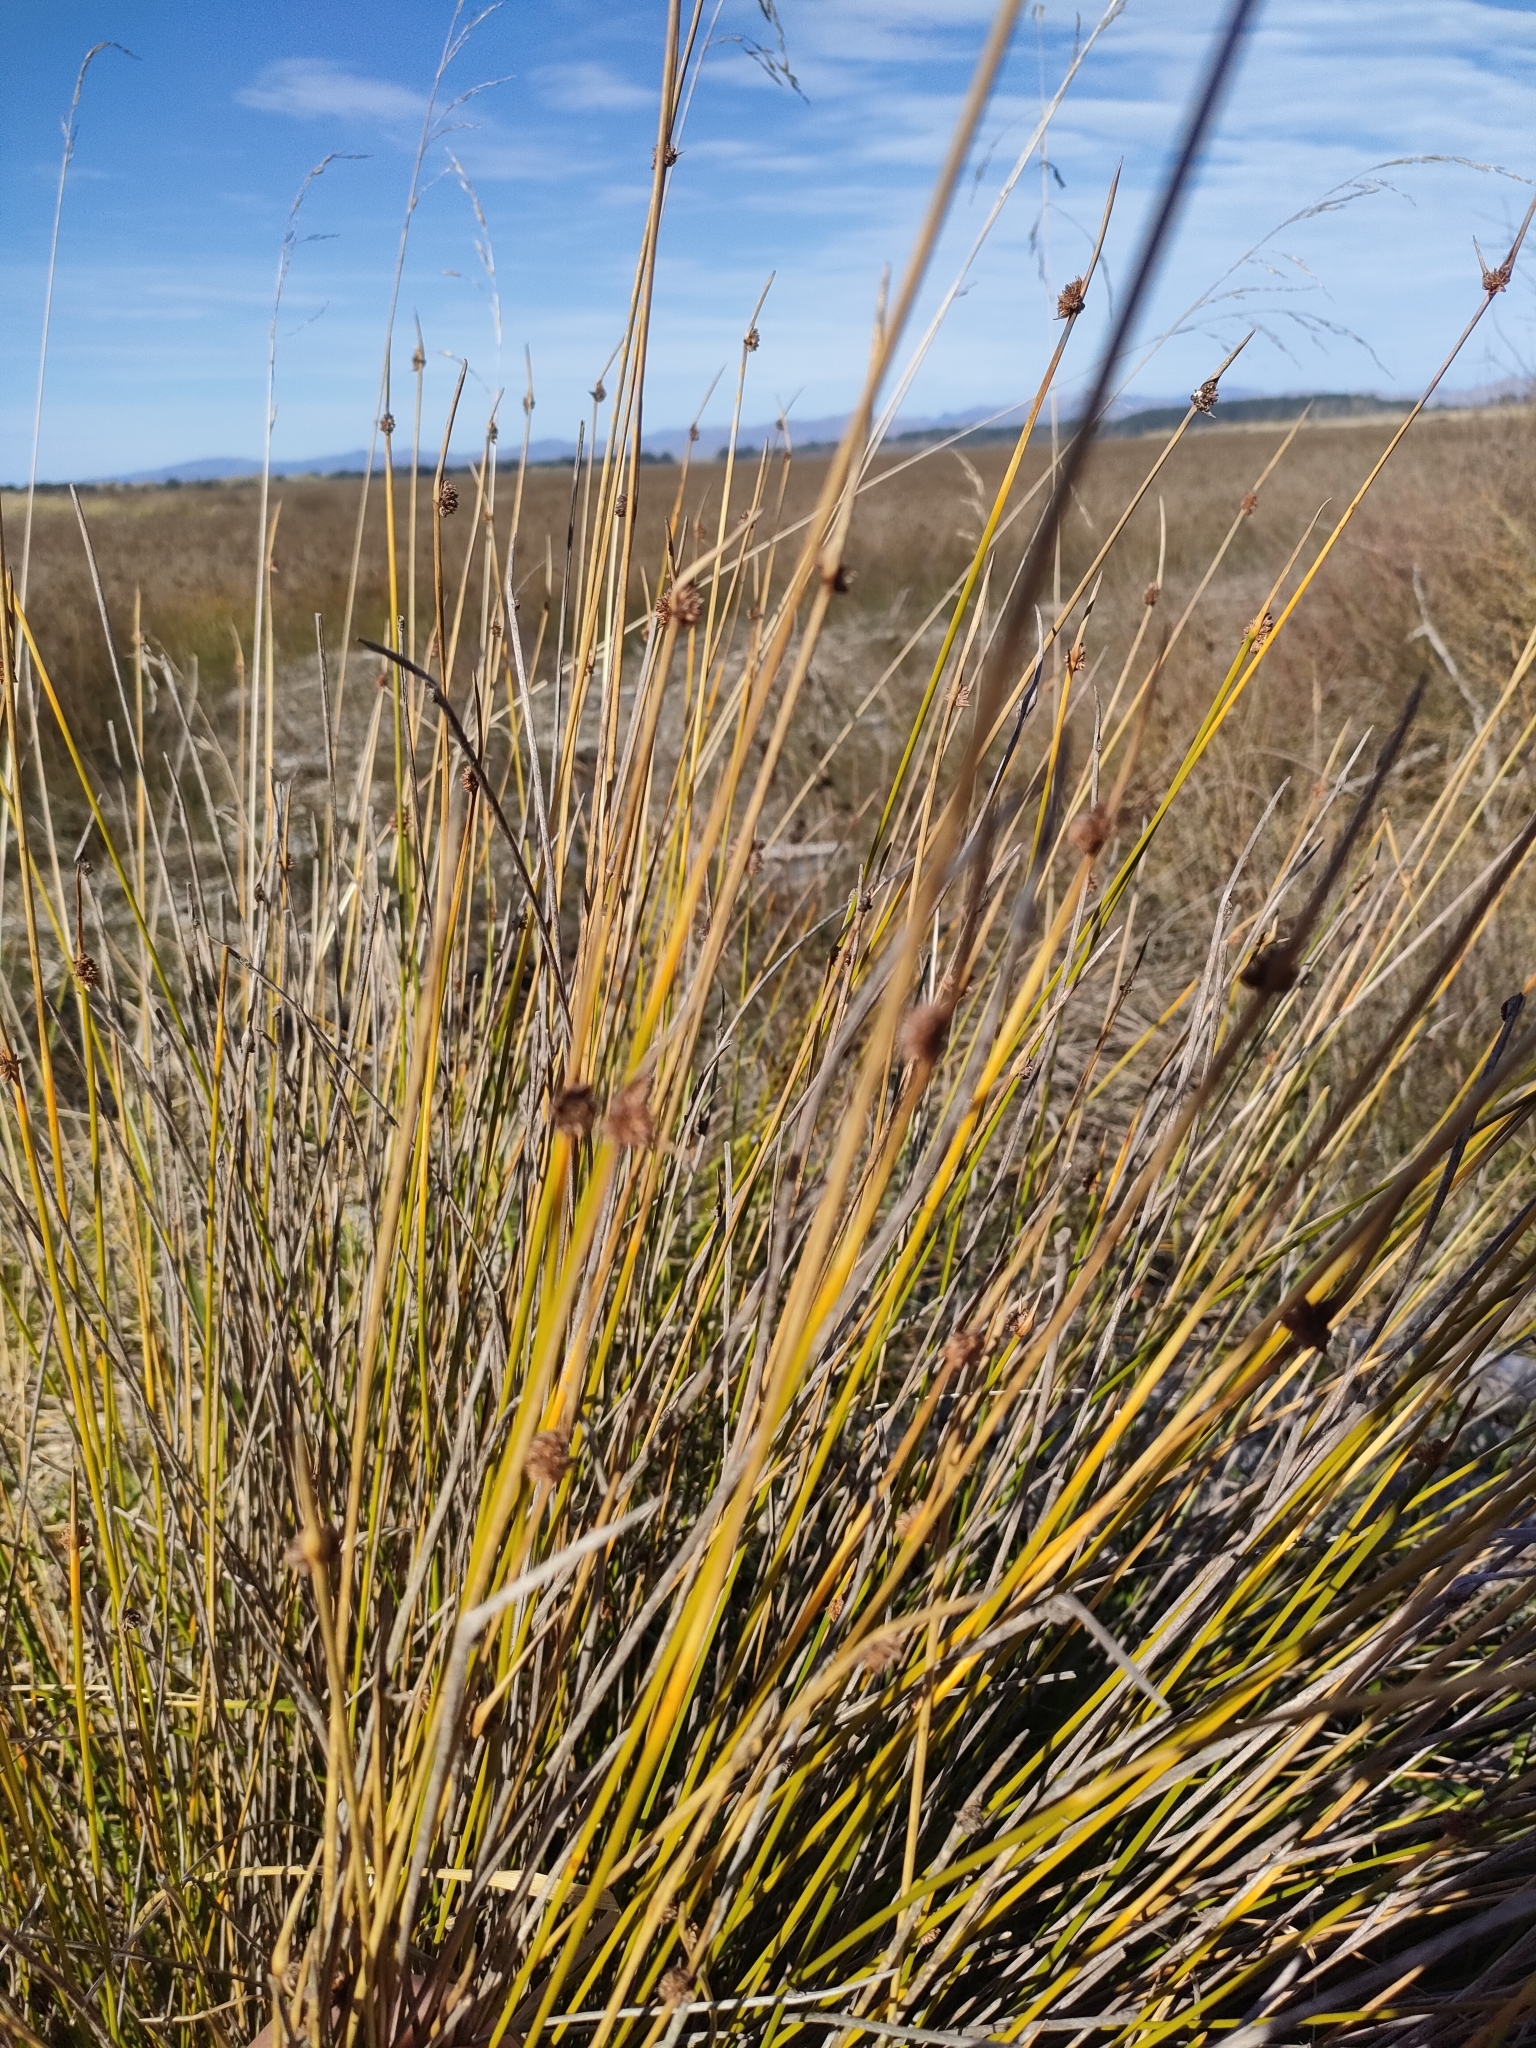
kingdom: Plantae
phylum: Tracheophyta
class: Liliopsida
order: Poales
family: Cyperaceae
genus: Ficinia
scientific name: Ficinia nodosa
